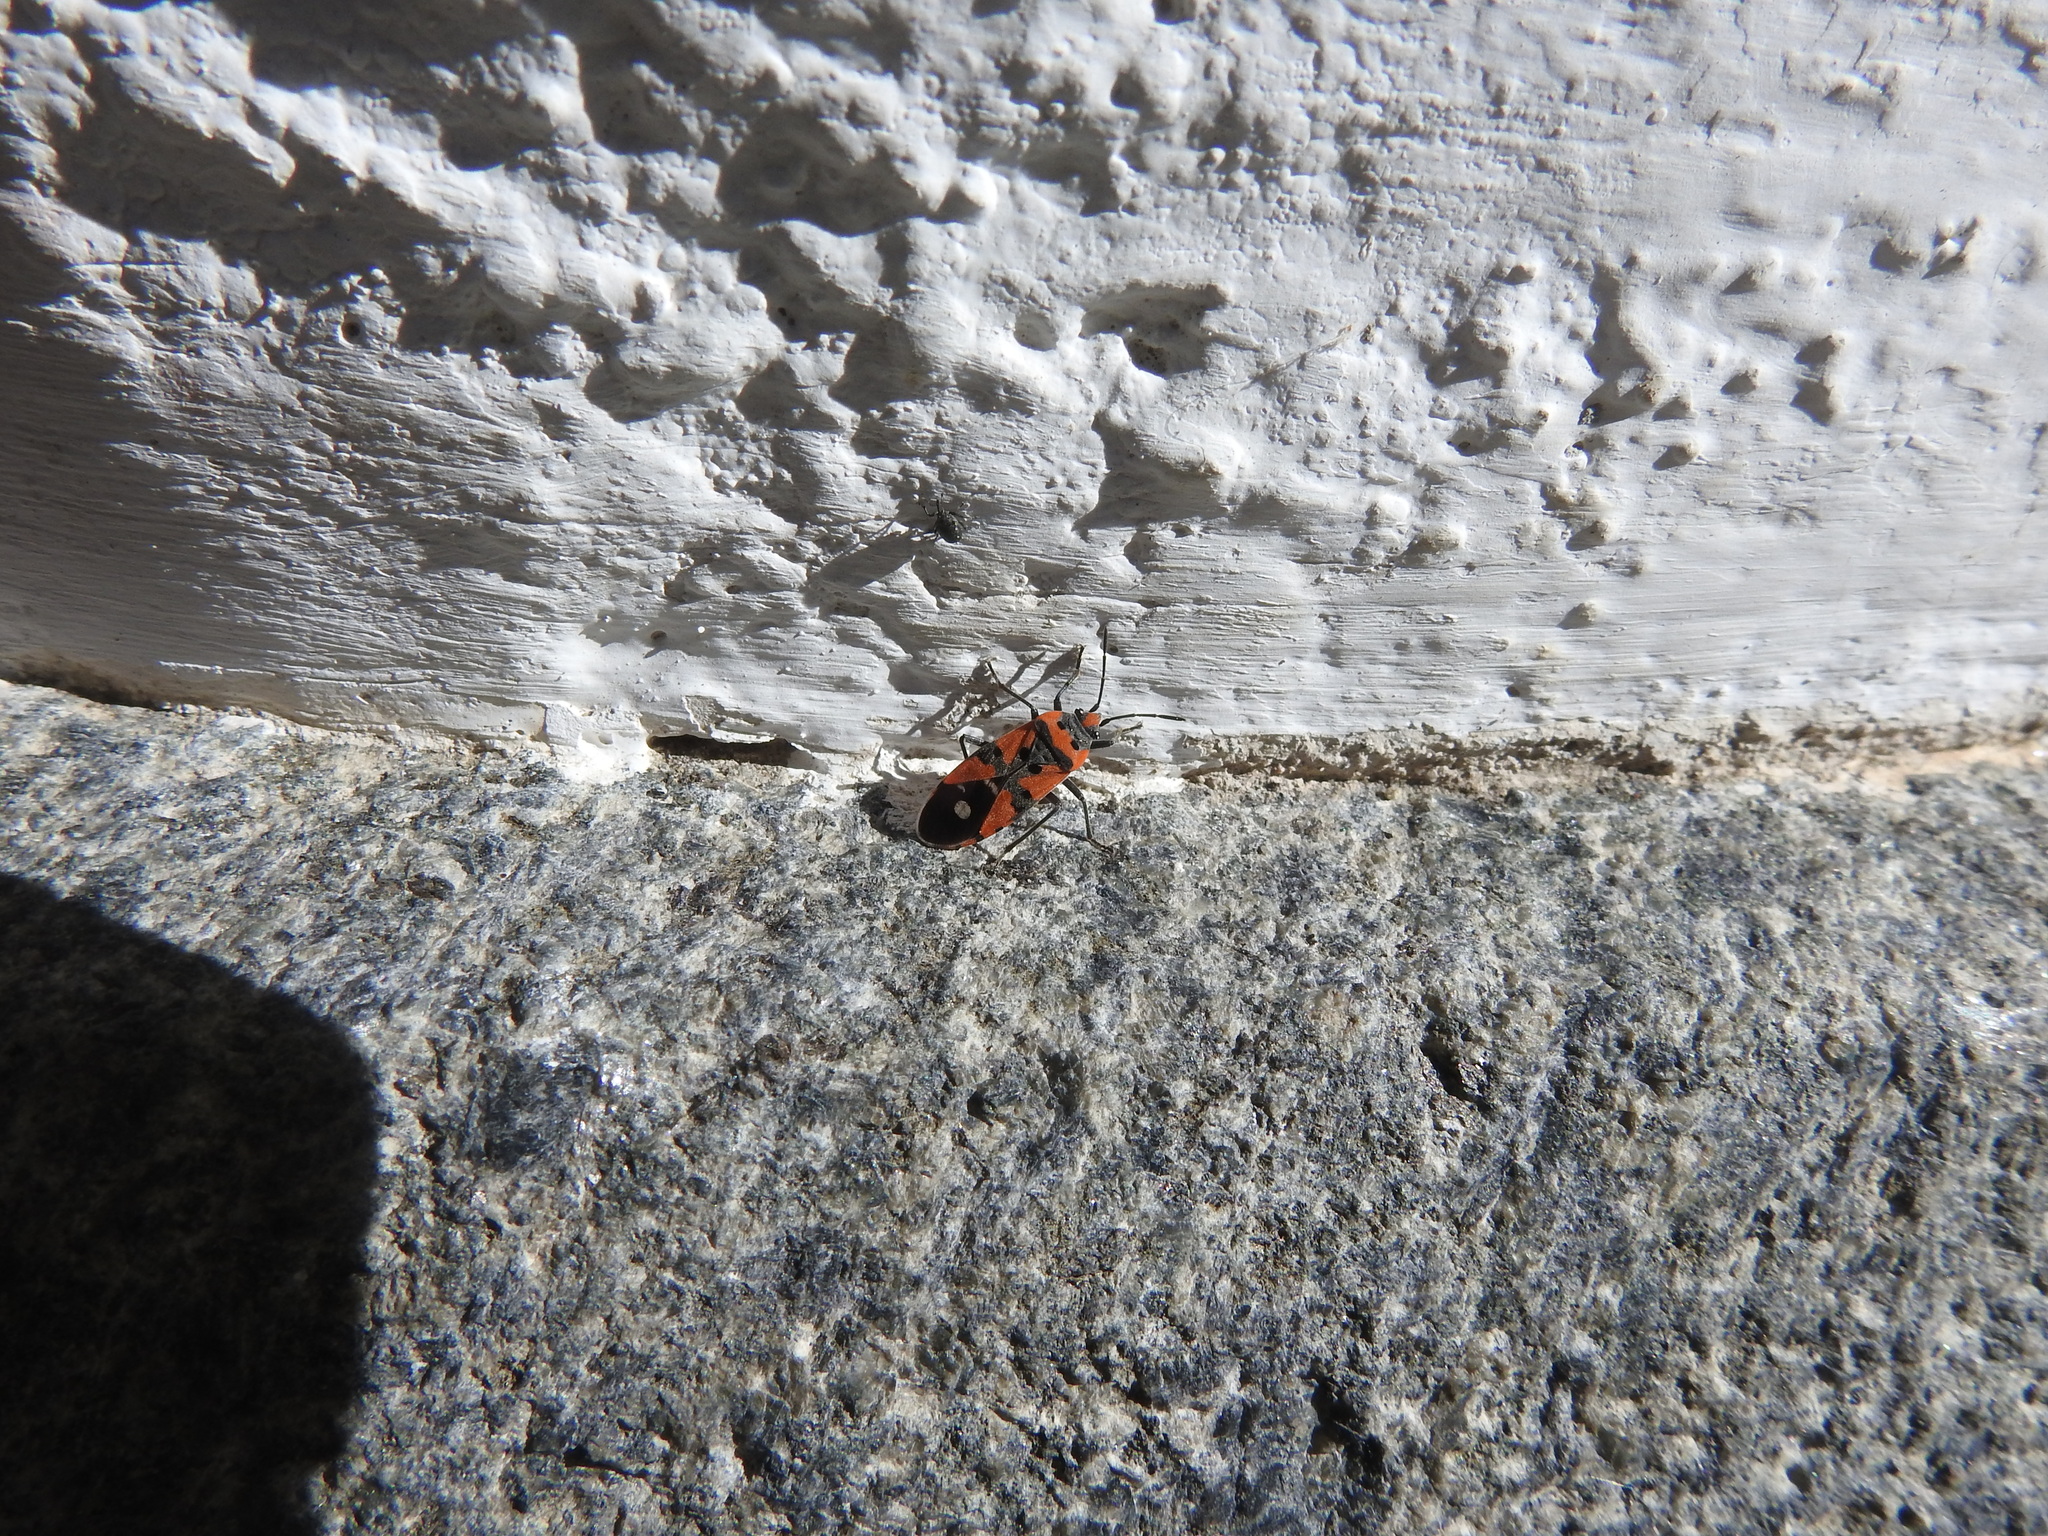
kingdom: Animalia
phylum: Arthropoda
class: Insecta
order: Hemiptera
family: Lygaeidae
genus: Lygaeus
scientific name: Lygaeus equestris
